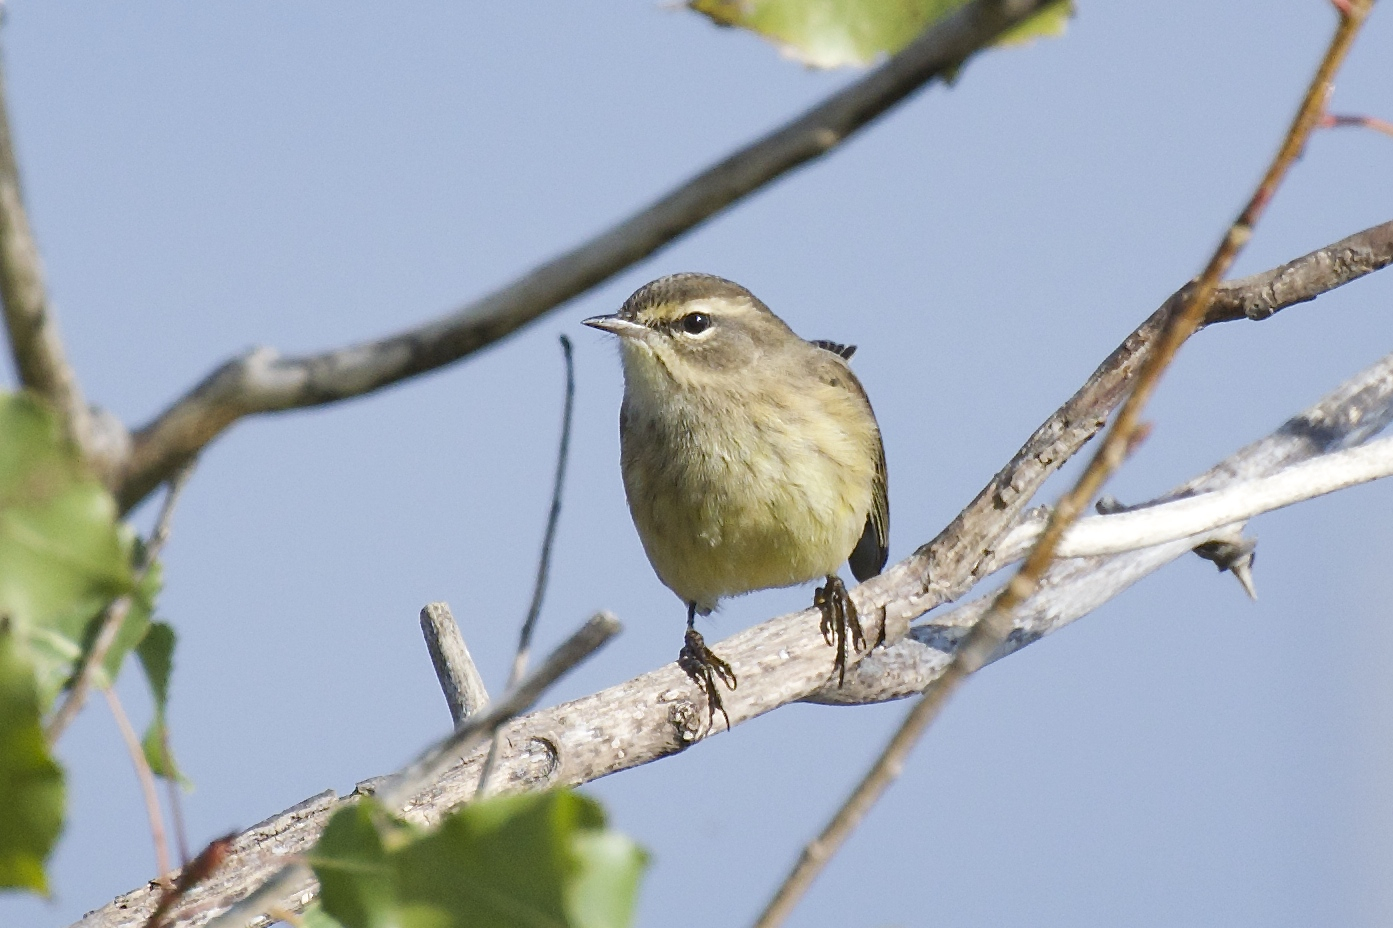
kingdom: Animalia
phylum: Chordata
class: Aves
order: Passeriformes
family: Parulidae
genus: Setophaga
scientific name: Setophaga palmarum
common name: Palm warbler
